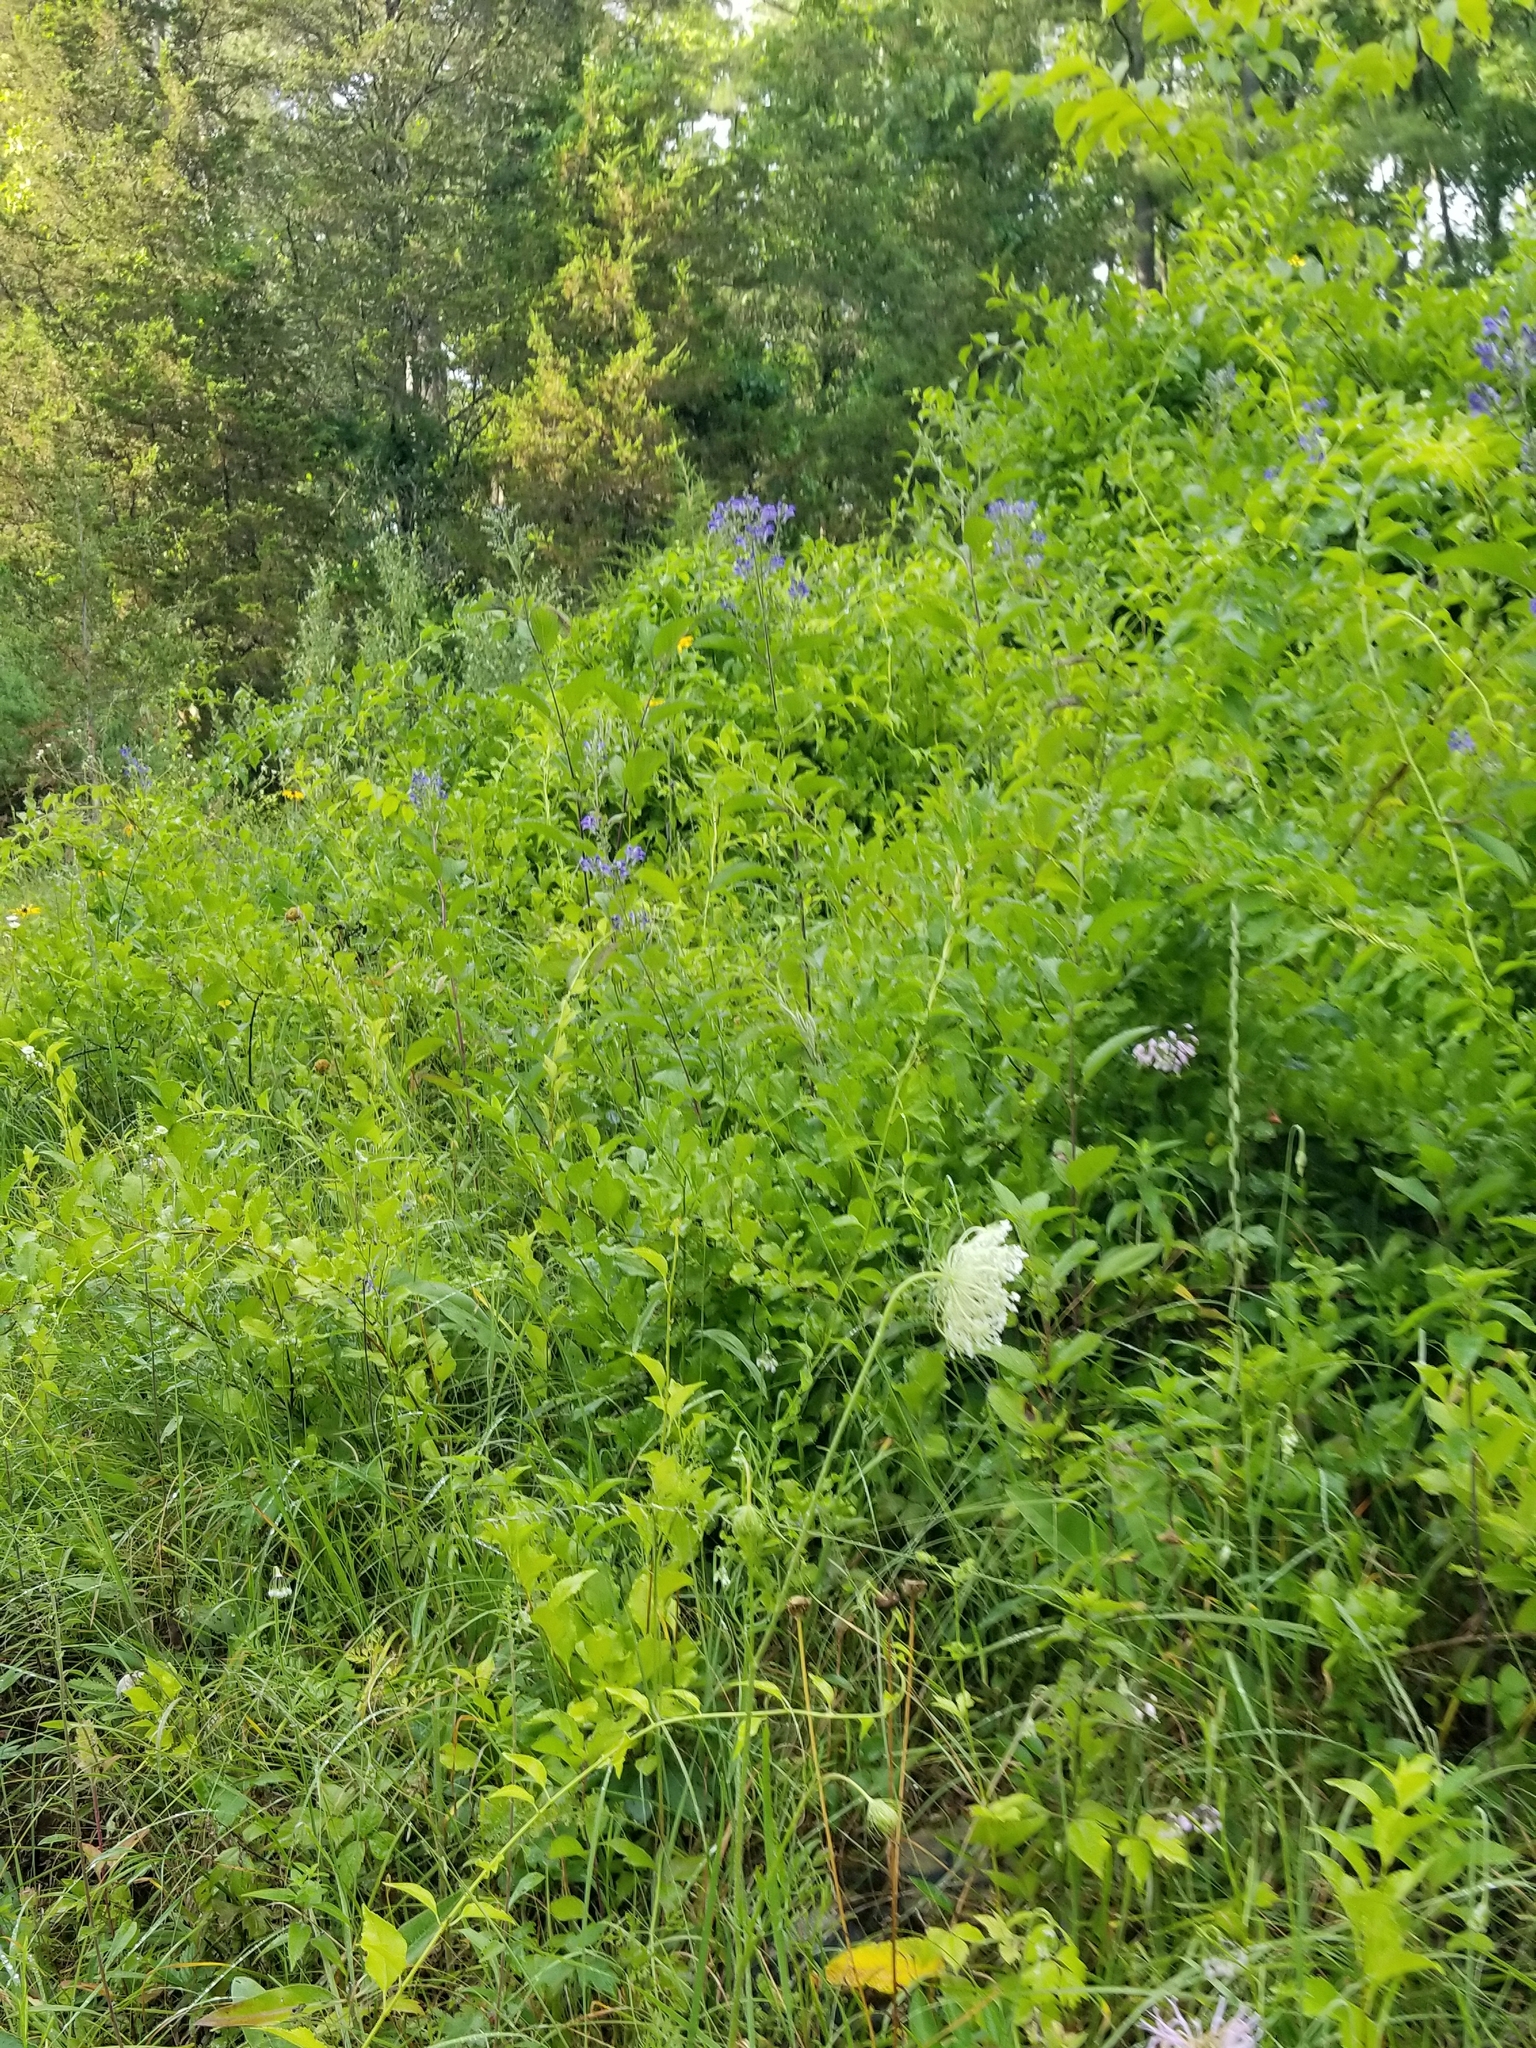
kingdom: Plantae
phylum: Tracheophyta
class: Magnoliopsida
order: Lamiales
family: Lamiaceae
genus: Scutellaria
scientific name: Scutellaria incana
